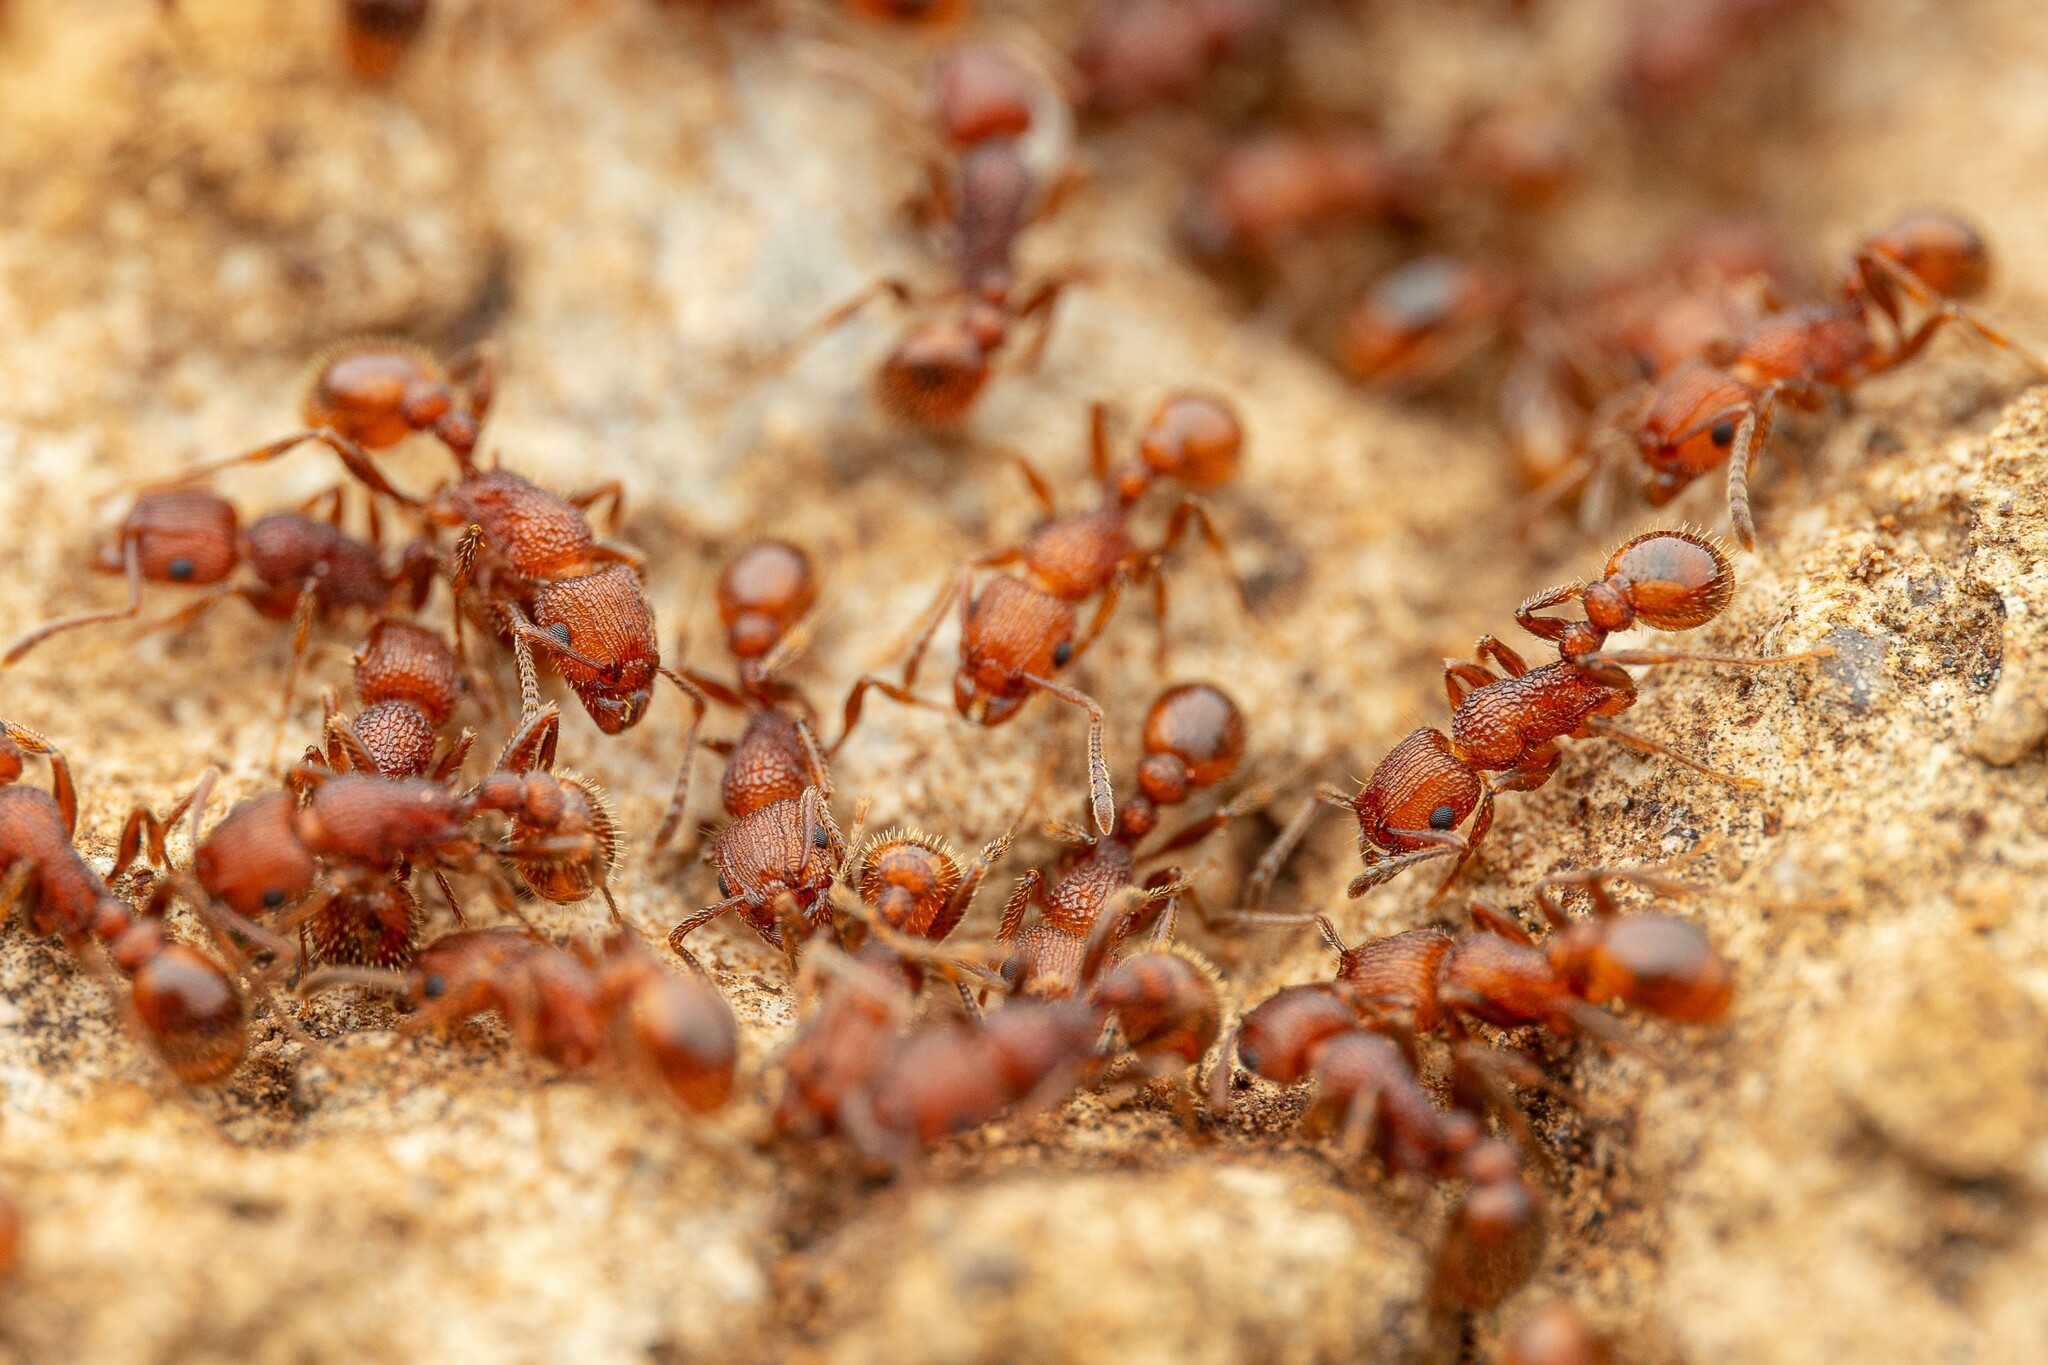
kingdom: Animalia
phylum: Arthropoda
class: Insecta
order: Hymenoptera
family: Formicidae
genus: Tetramorium
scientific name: Tetramorium hispidum
